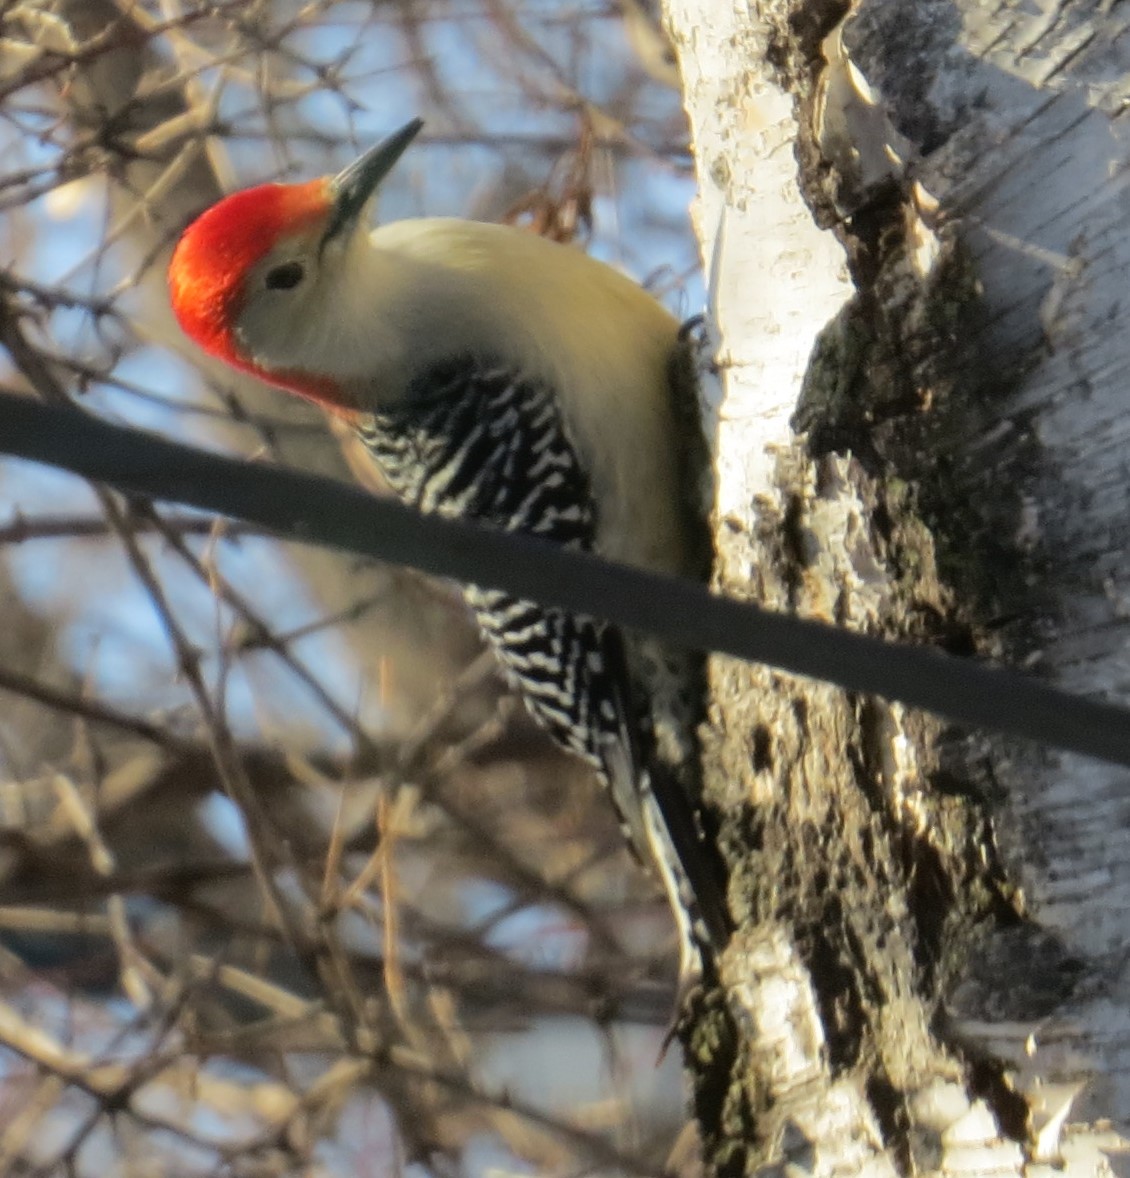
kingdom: Animalia
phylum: Chordata
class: Aves
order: Piciformes
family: Picidae
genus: Melanerpes
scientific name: Melanerpes carolinus
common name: Red-bellied woodpecker
